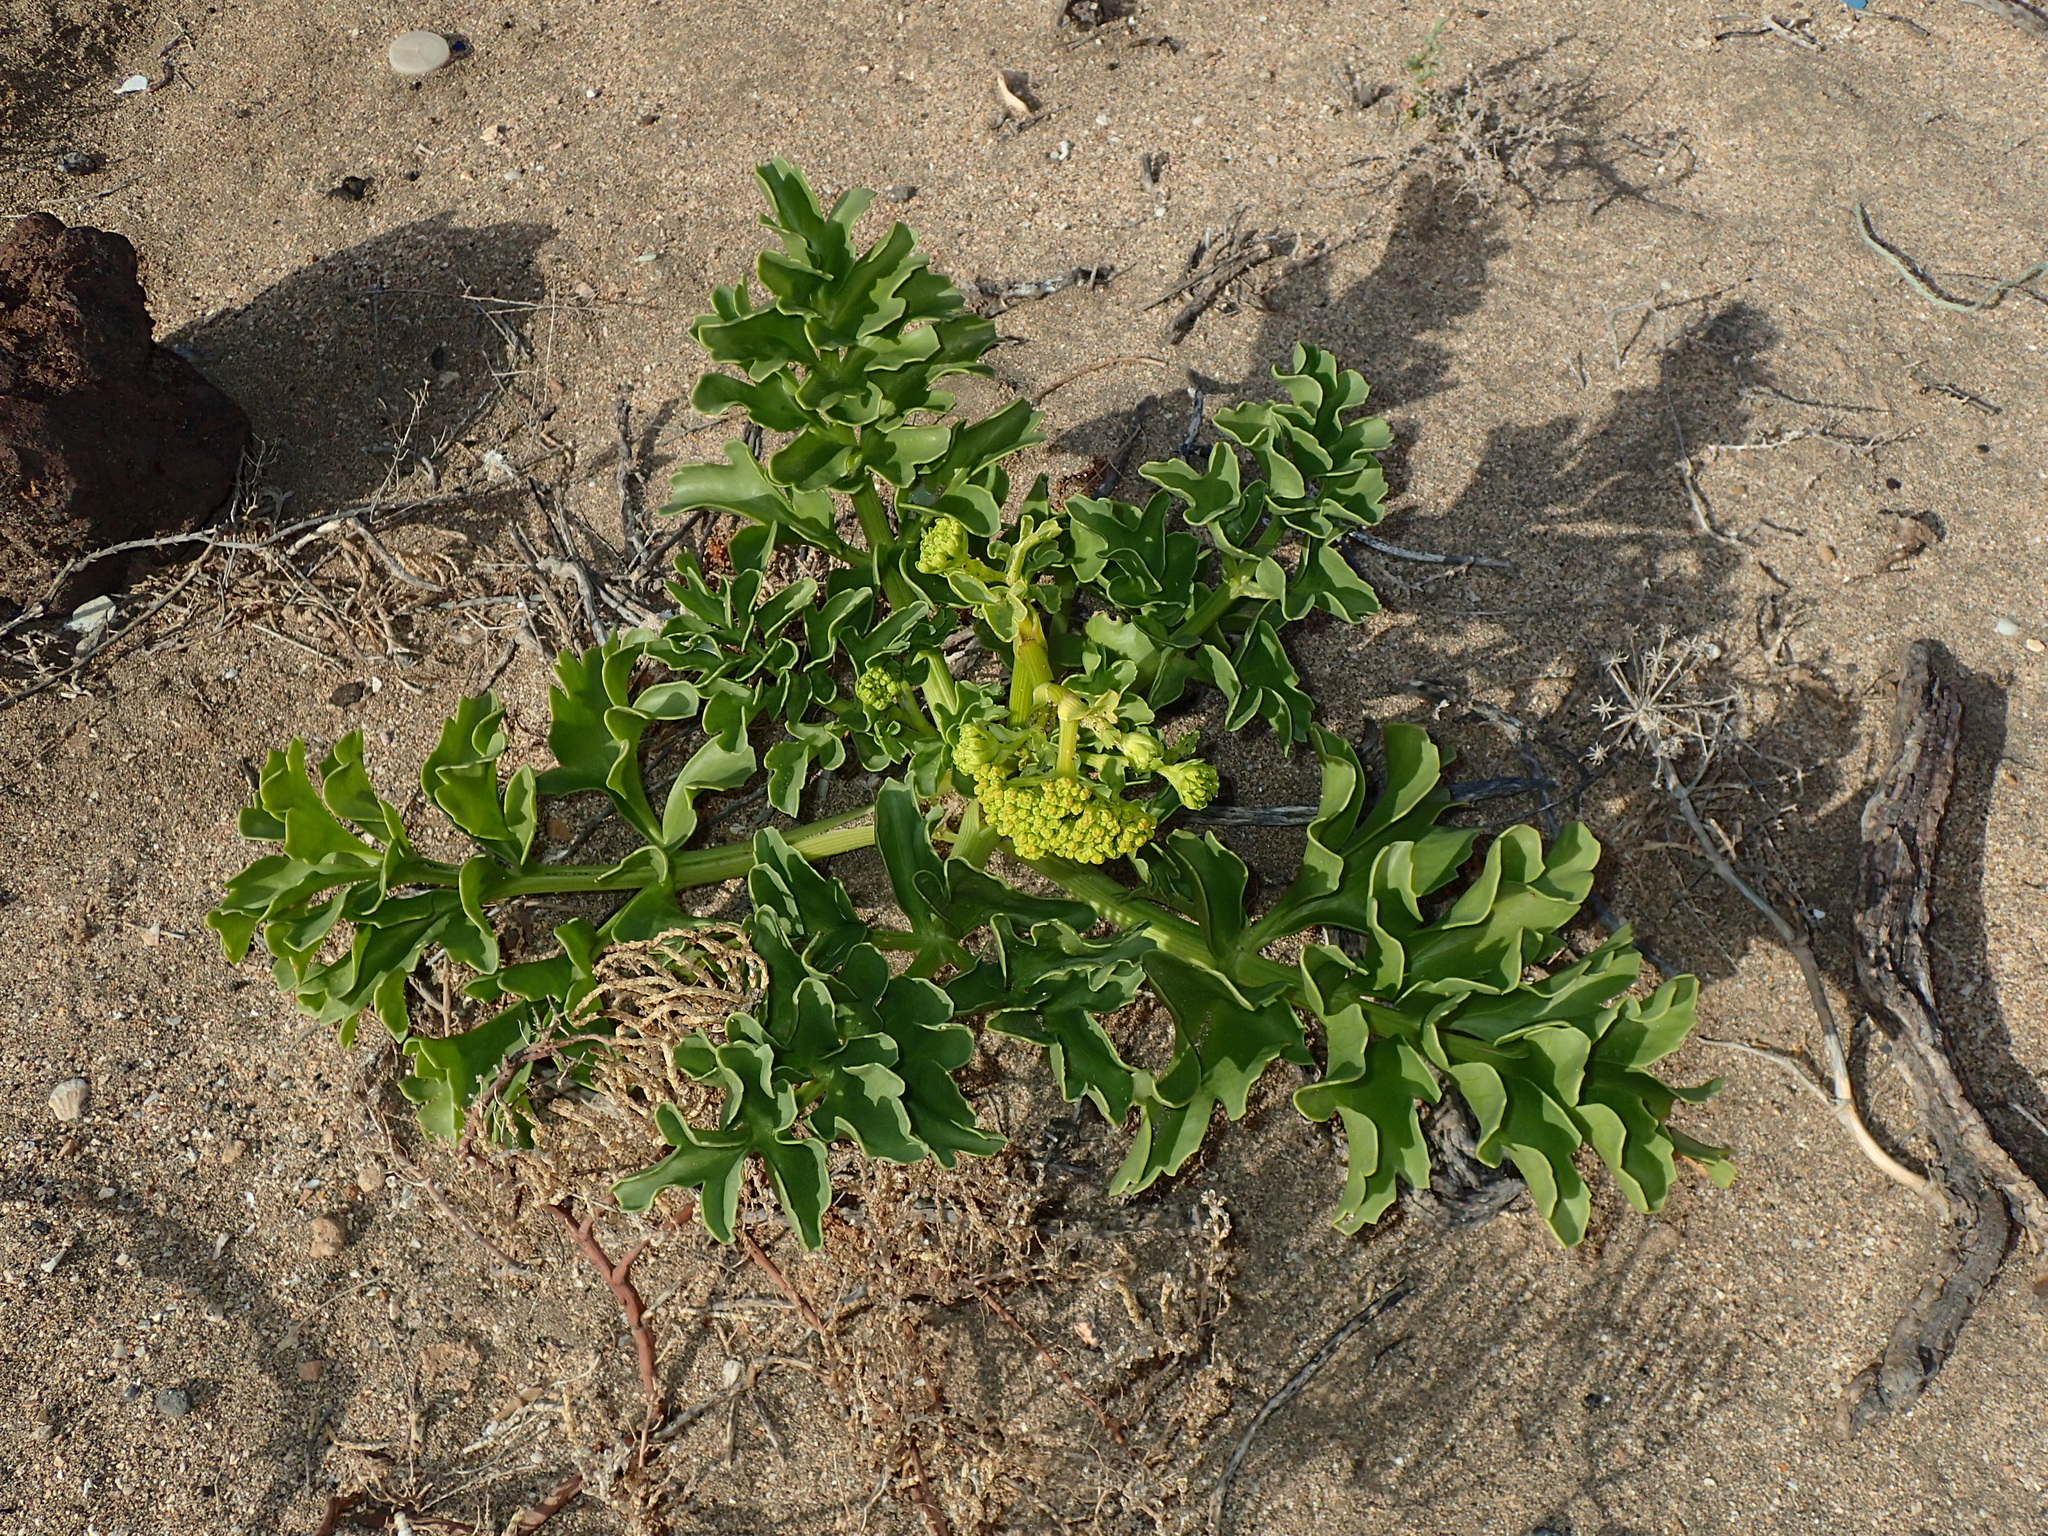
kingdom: Plantae
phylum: Tracheophyta
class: Magnoliopsida
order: Apiales
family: Apiaceae
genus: Astydamia
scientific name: Astydamia latifolia
